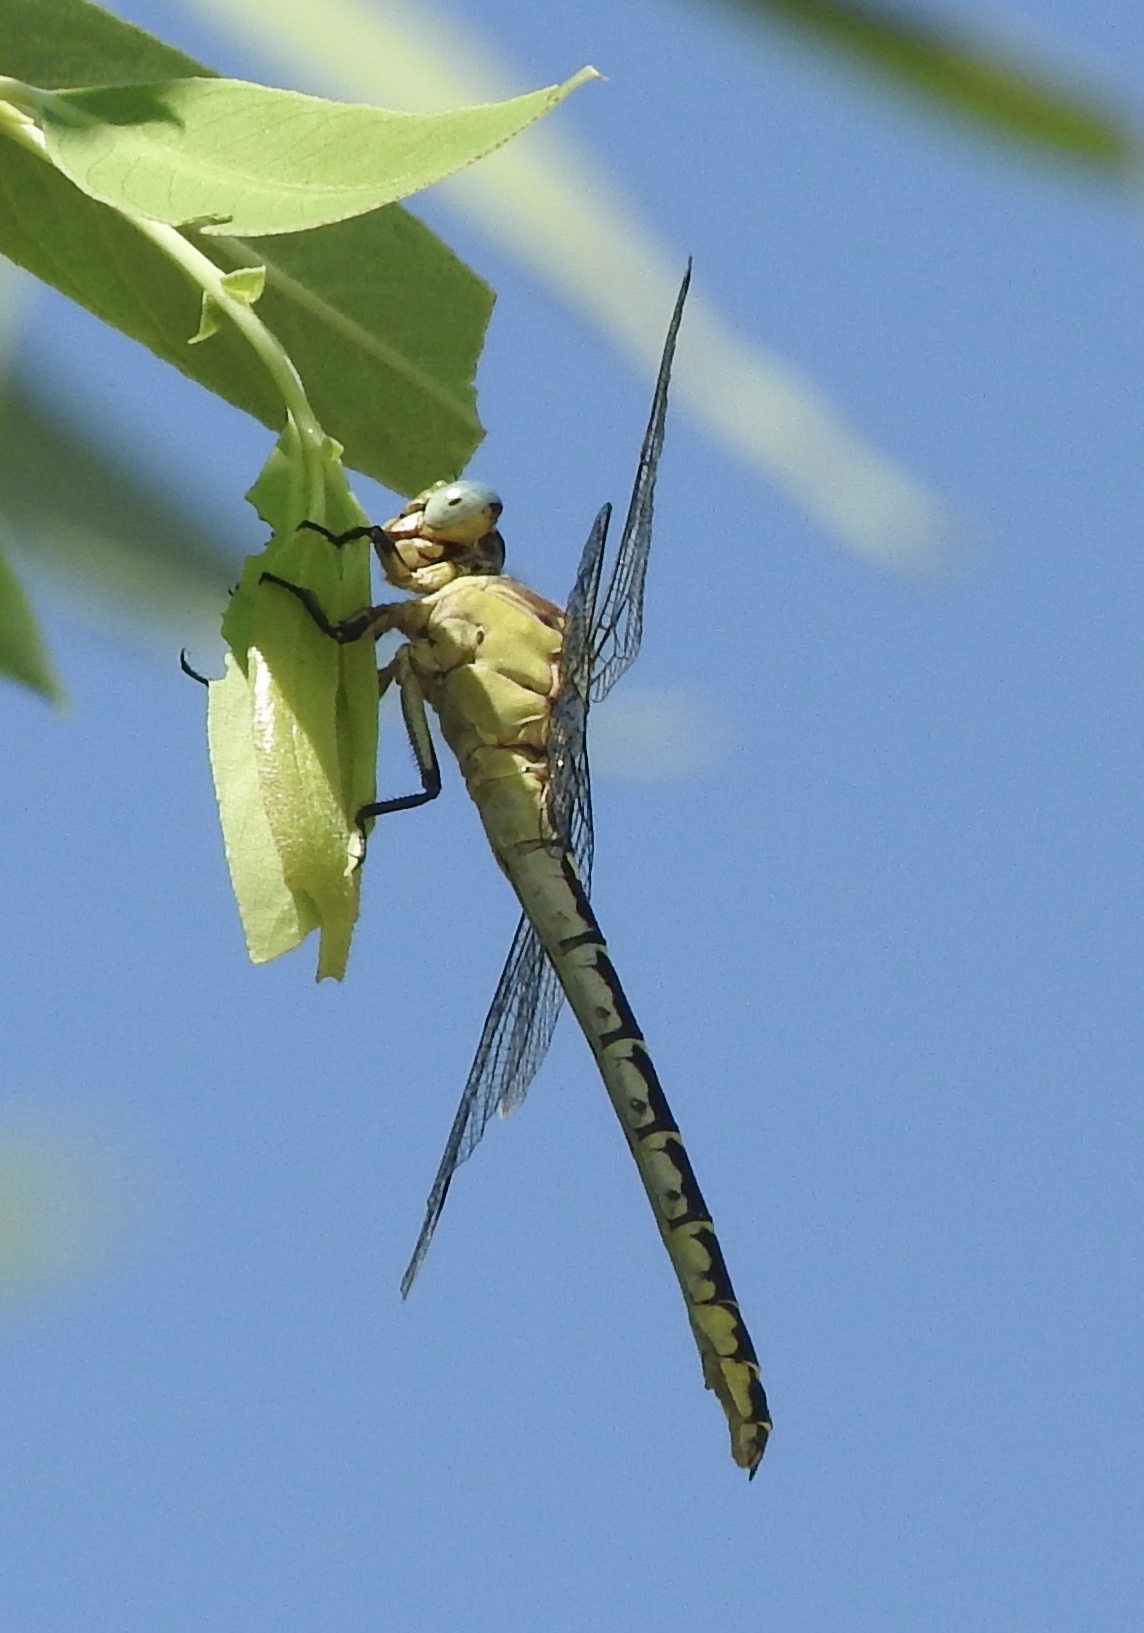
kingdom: Animalia
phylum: Arthropoda
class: Insecta
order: Odonata
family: Gomphidae
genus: Stylurus
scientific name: Stylurus olivaceus
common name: Olive clubtail
